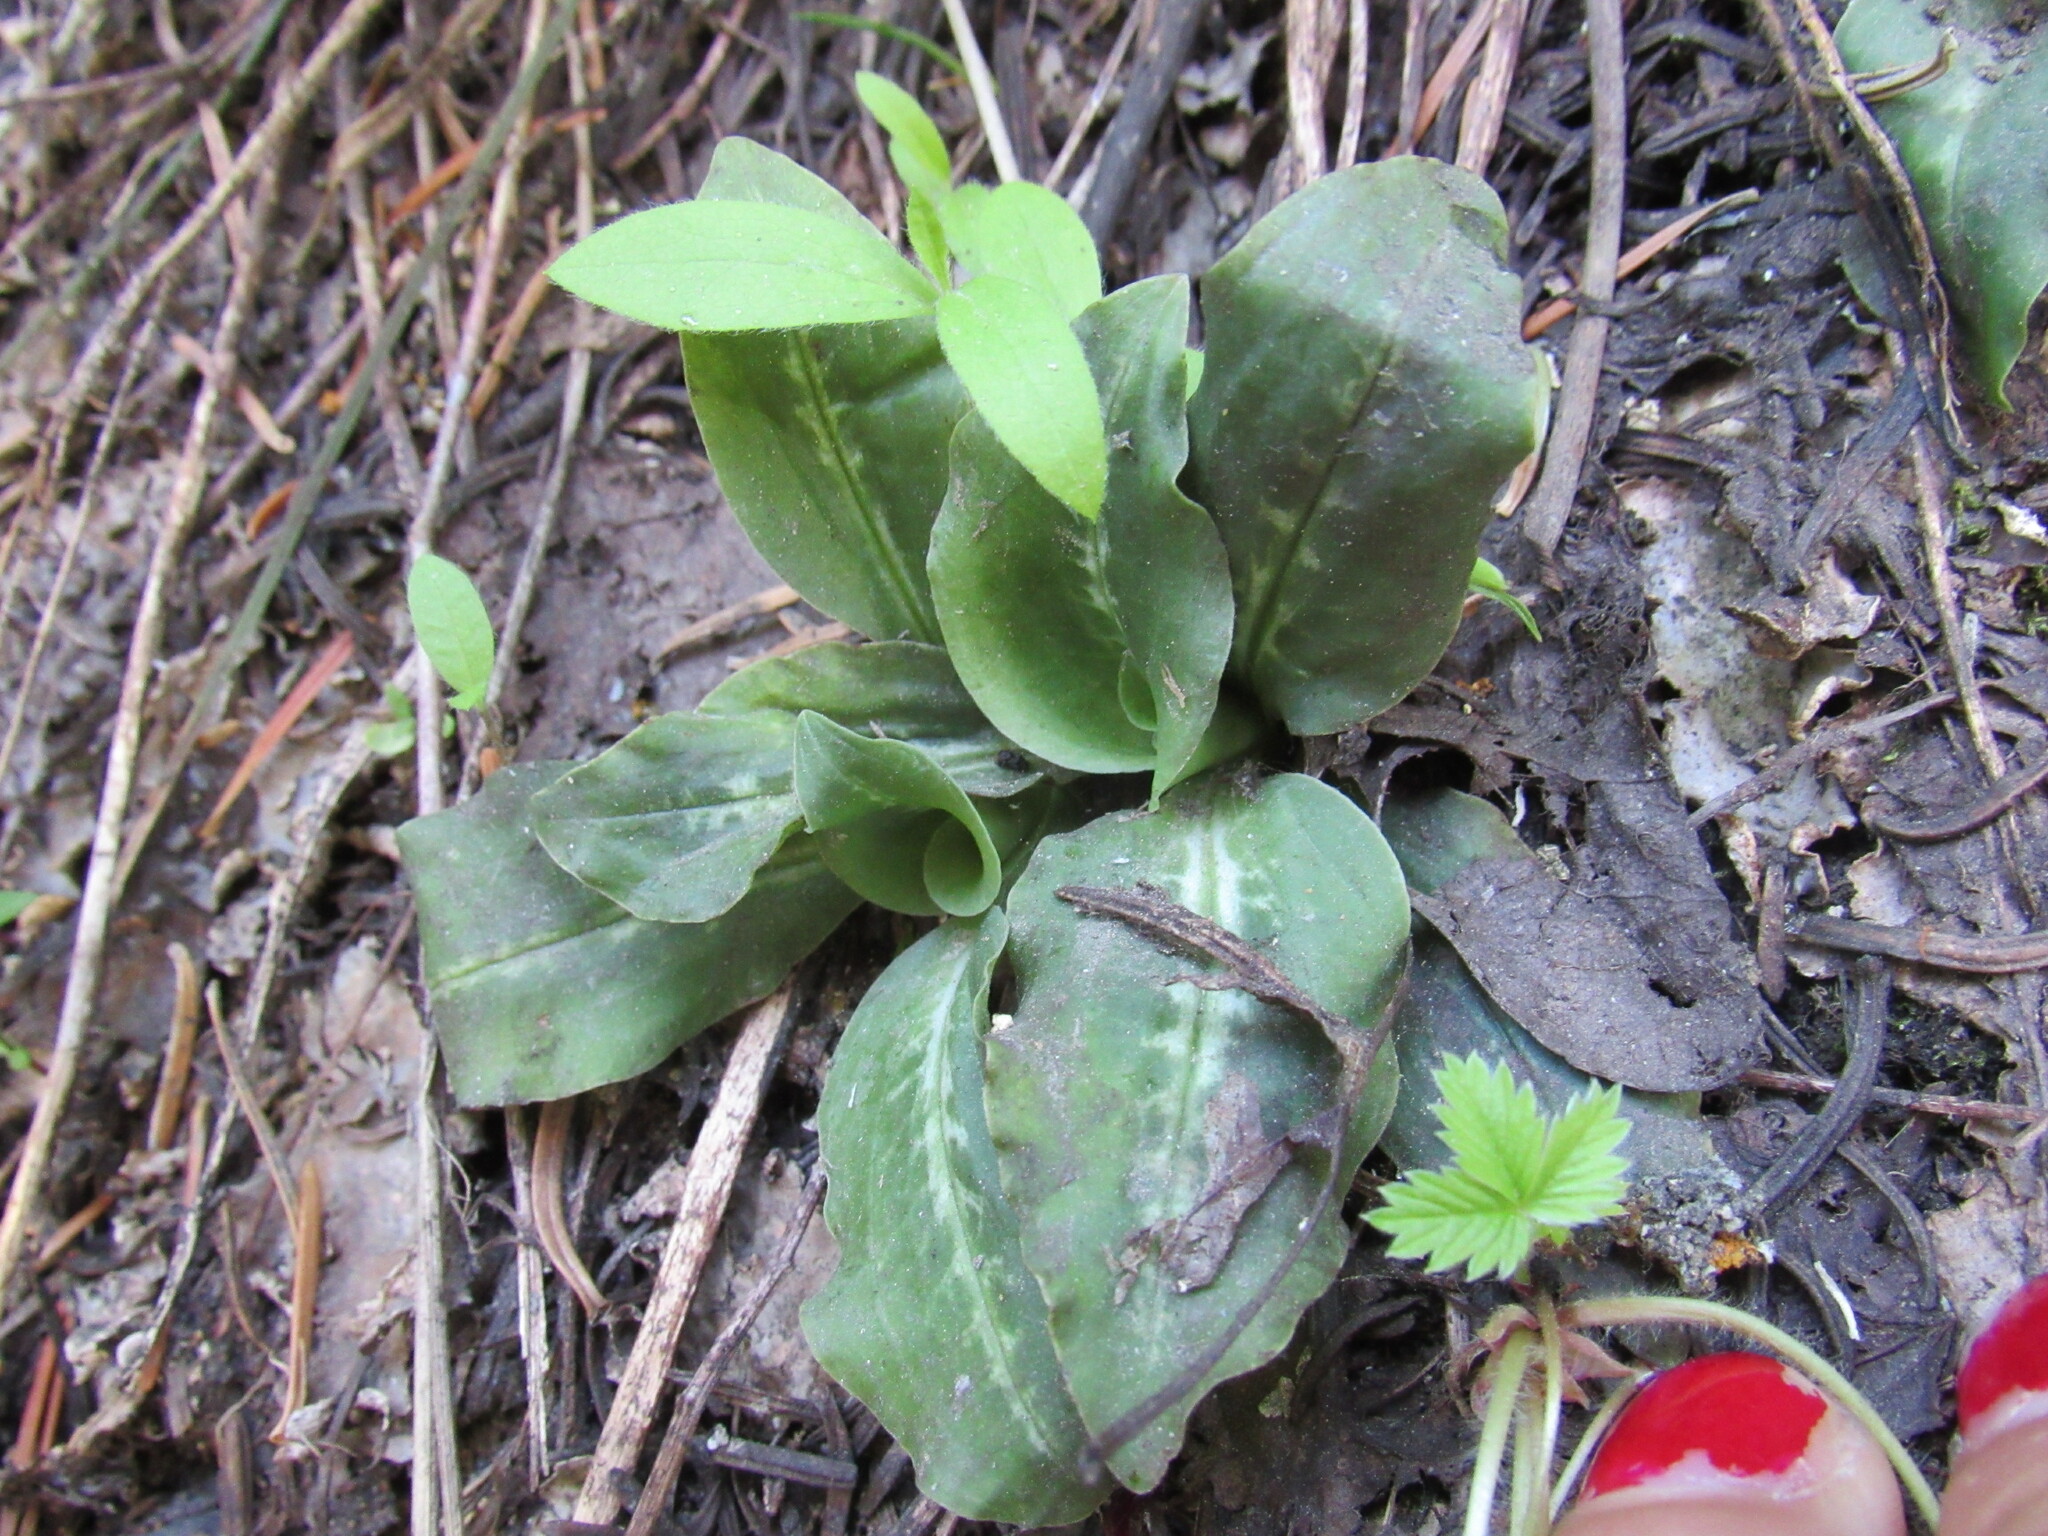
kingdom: Plantae
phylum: Tracheophyta
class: Liliopsida
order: Asparagales
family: Orchidaceae
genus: Goodyera
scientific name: Goodyera oblongifolia
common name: Giant rattlesnake-plantain
